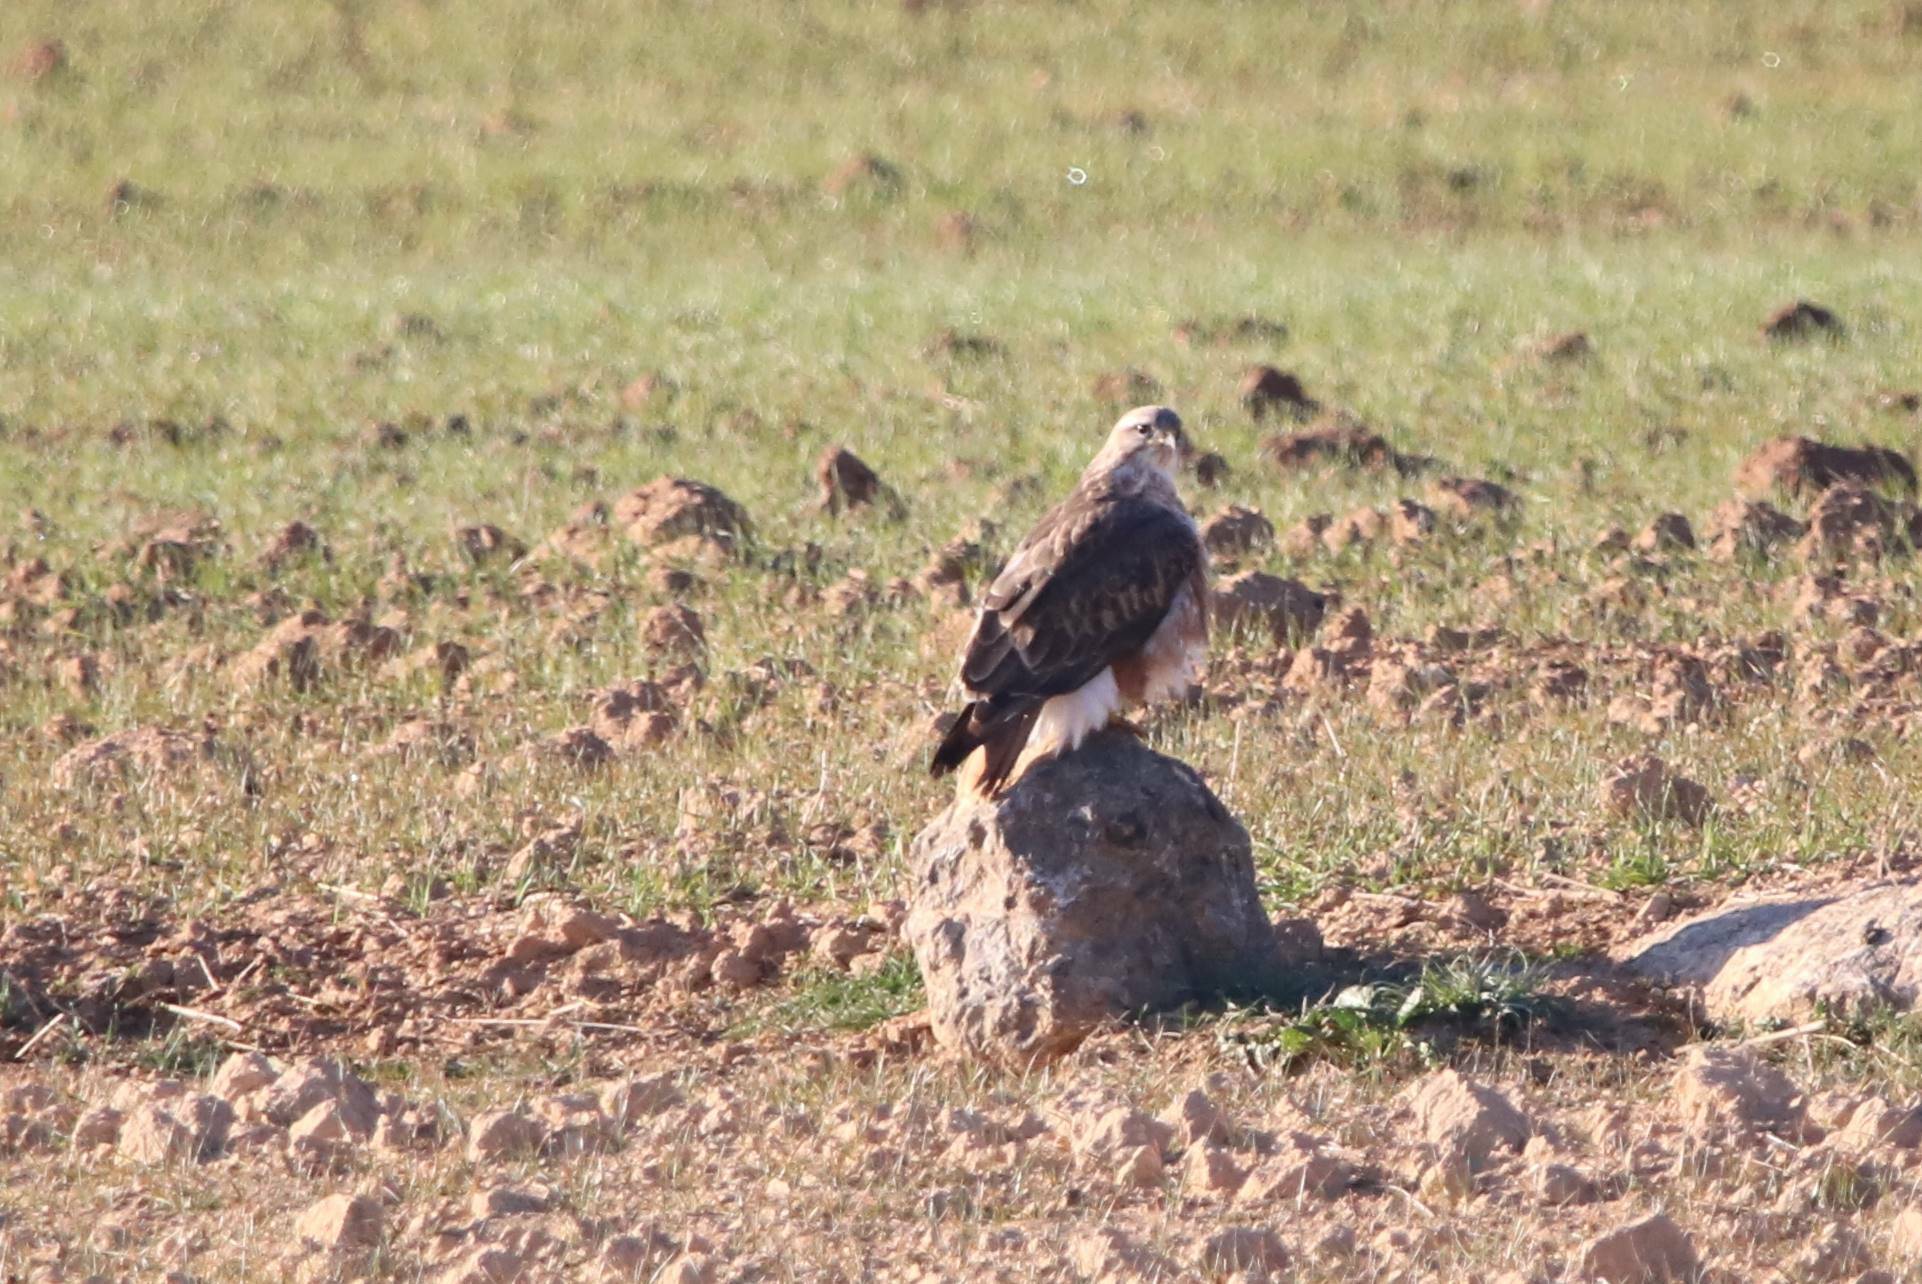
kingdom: Animalia
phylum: Chordata
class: Aves
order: Accipitriformes
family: Accipitridae
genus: Buteo
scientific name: Buteo rufinus
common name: Long-legged buzzard
